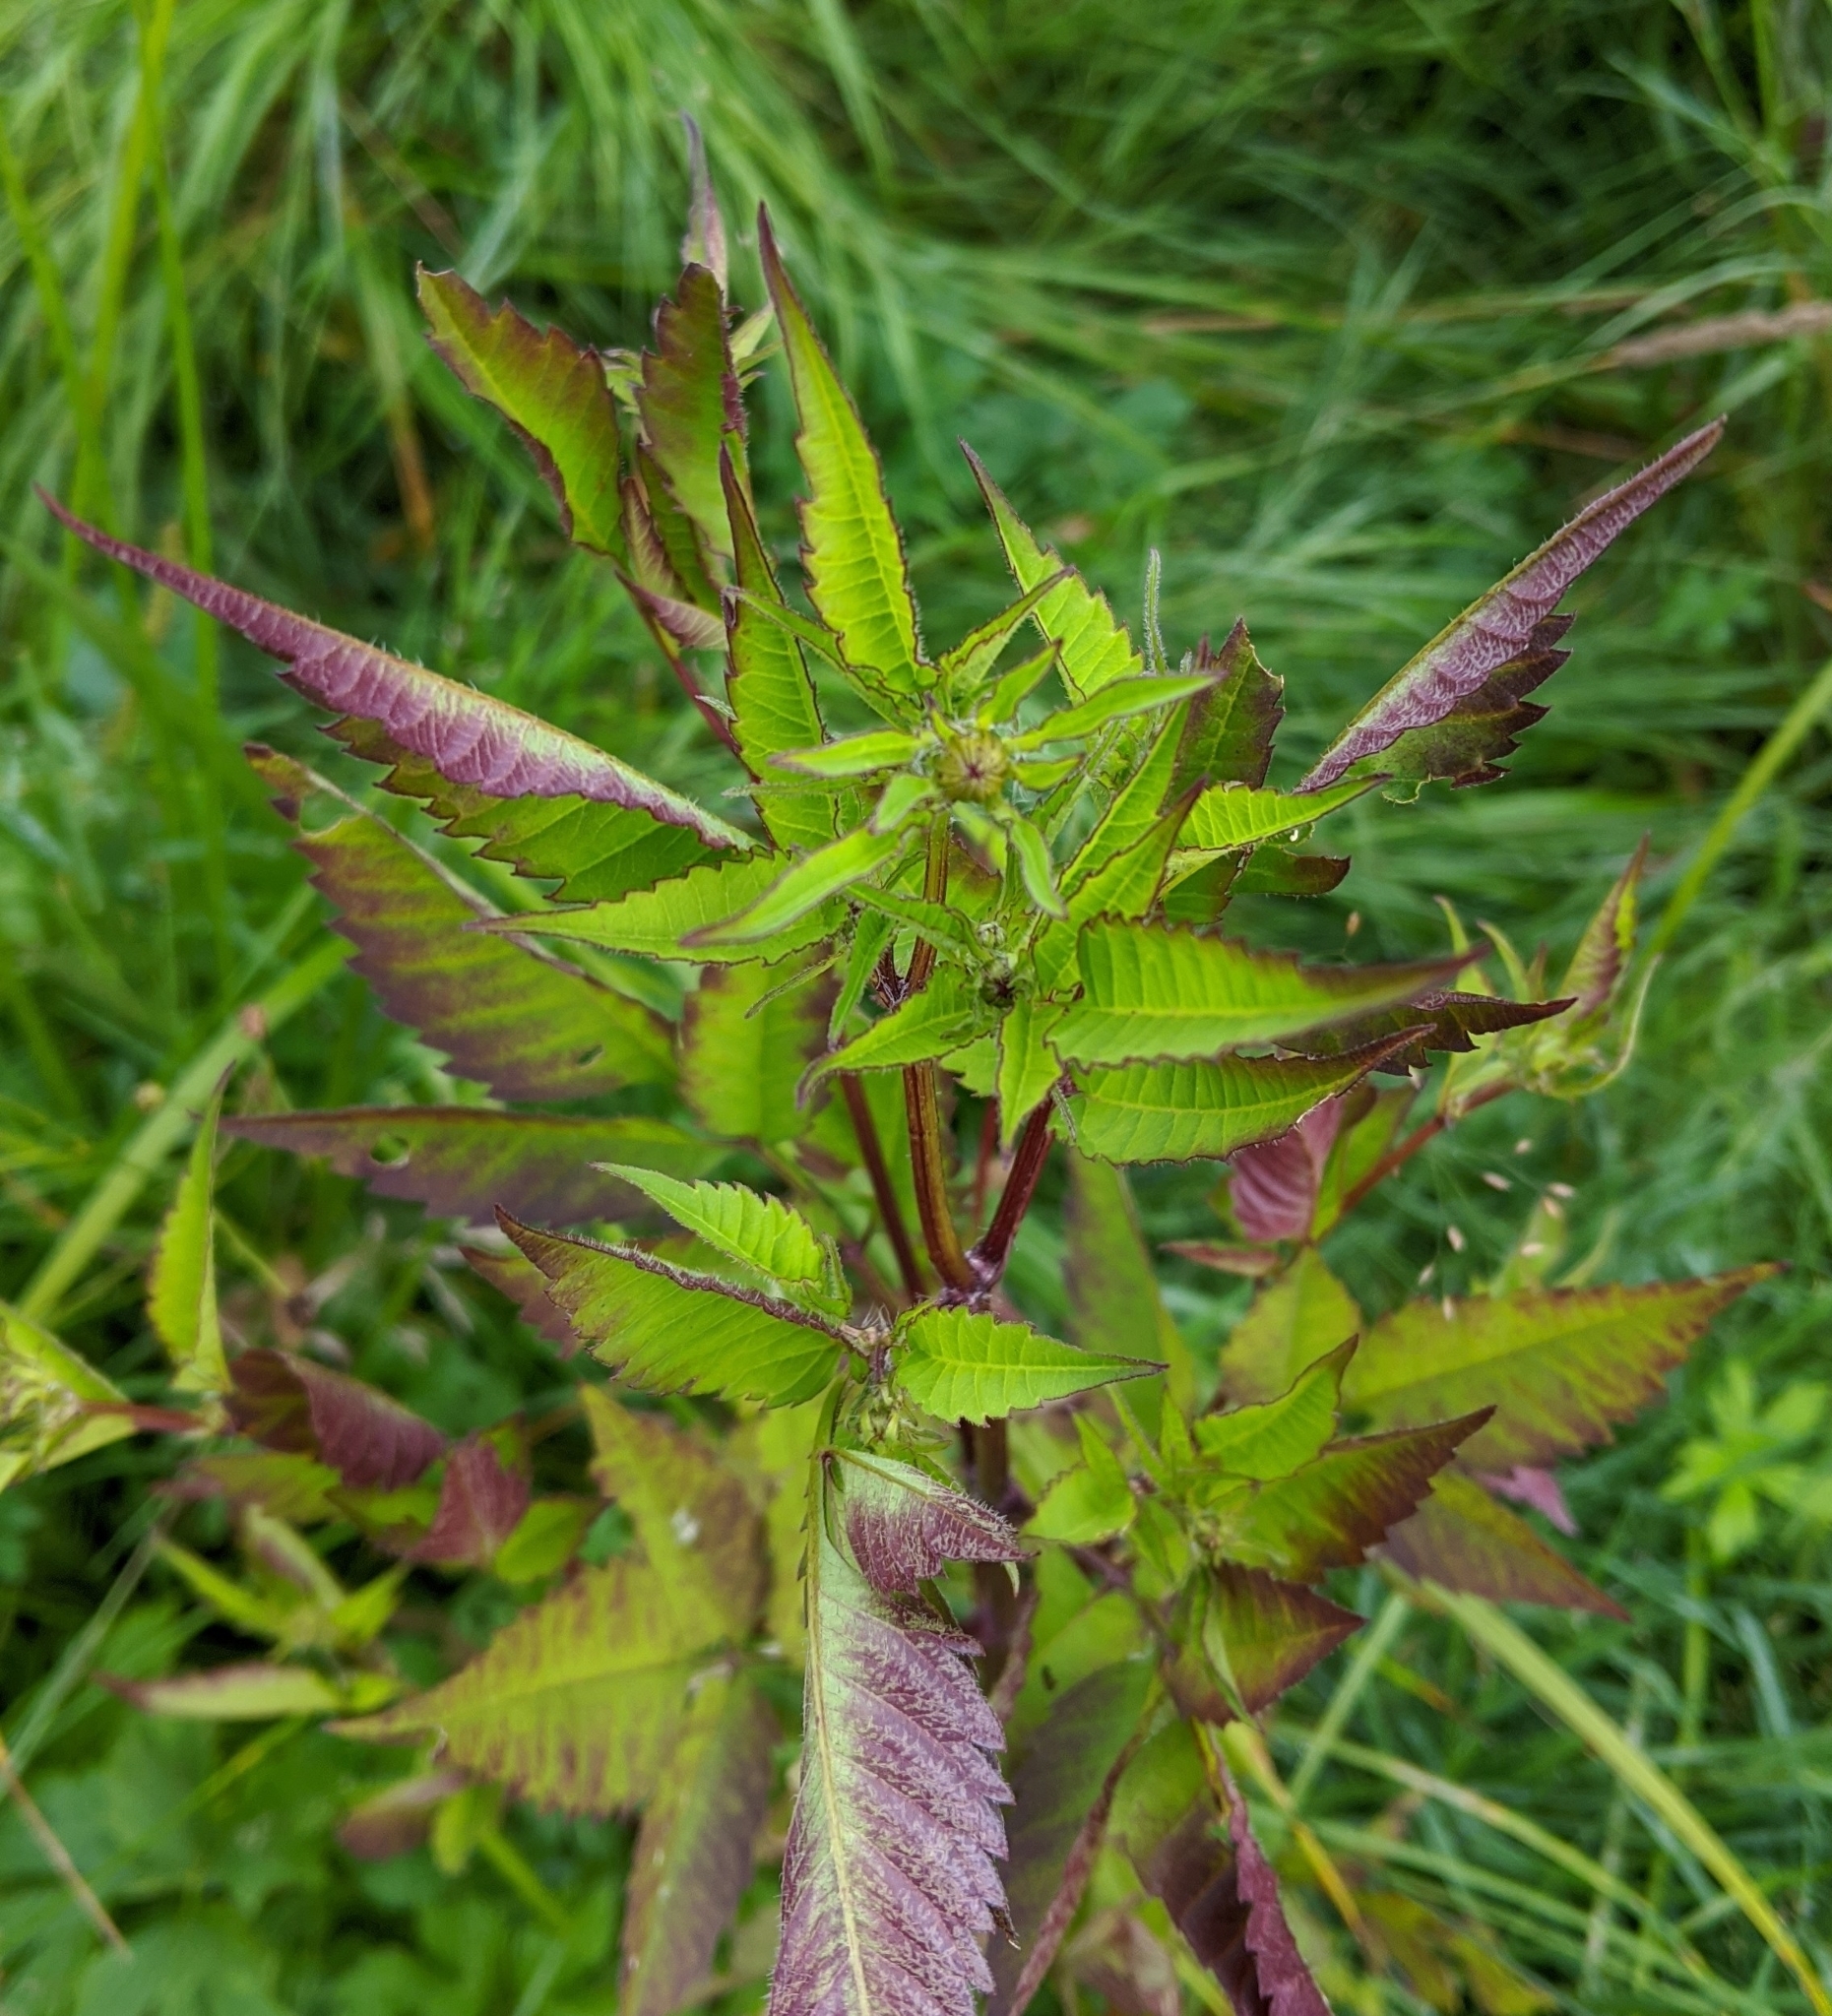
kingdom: Plantae
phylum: Tracheophyta
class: Magnoliopsida
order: Asterales
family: Asteraceae
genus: Bidens
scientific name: Bidens frondosa
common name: Beggarticks
